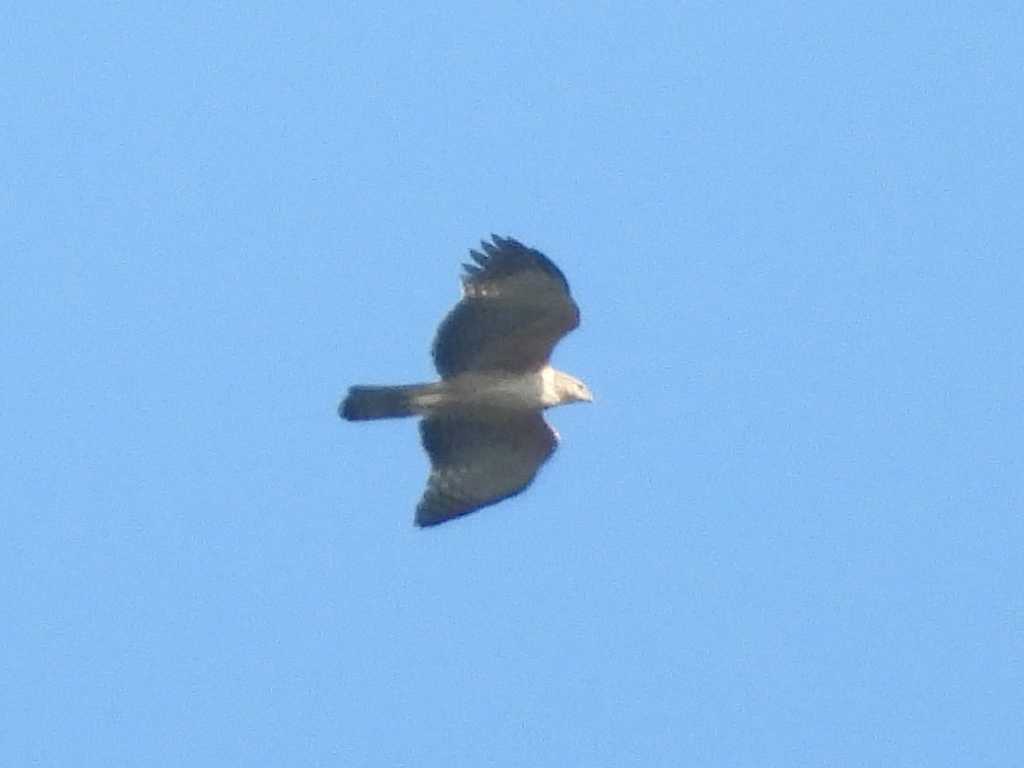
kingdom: Animalia
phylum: Chordata
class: Aves
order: Accipitriformes
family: Accipitridae
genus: Nisaetus
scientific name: Nisaetus nipalensis
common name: Mountain hawk-eagle
